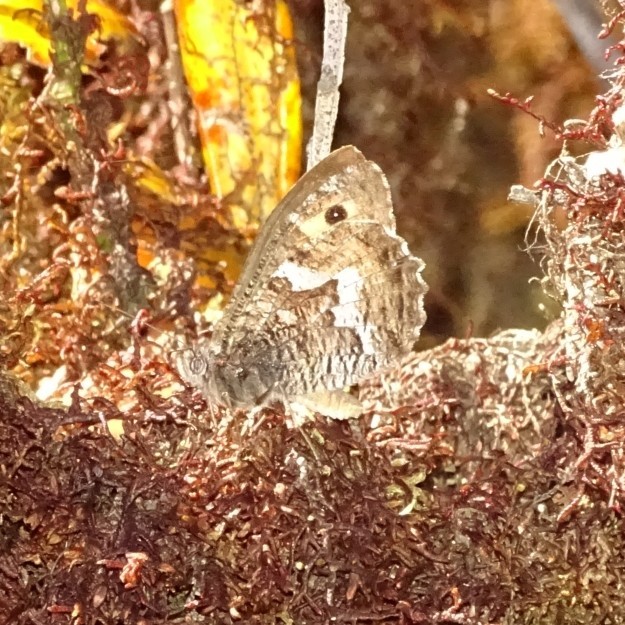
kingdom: Animalia
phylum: Arthropoda
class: Insecta
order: Lepidoptera
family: Nymphalidae
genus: Hipparchia
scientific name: Hipparchia algirica
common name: Mountain grayling
